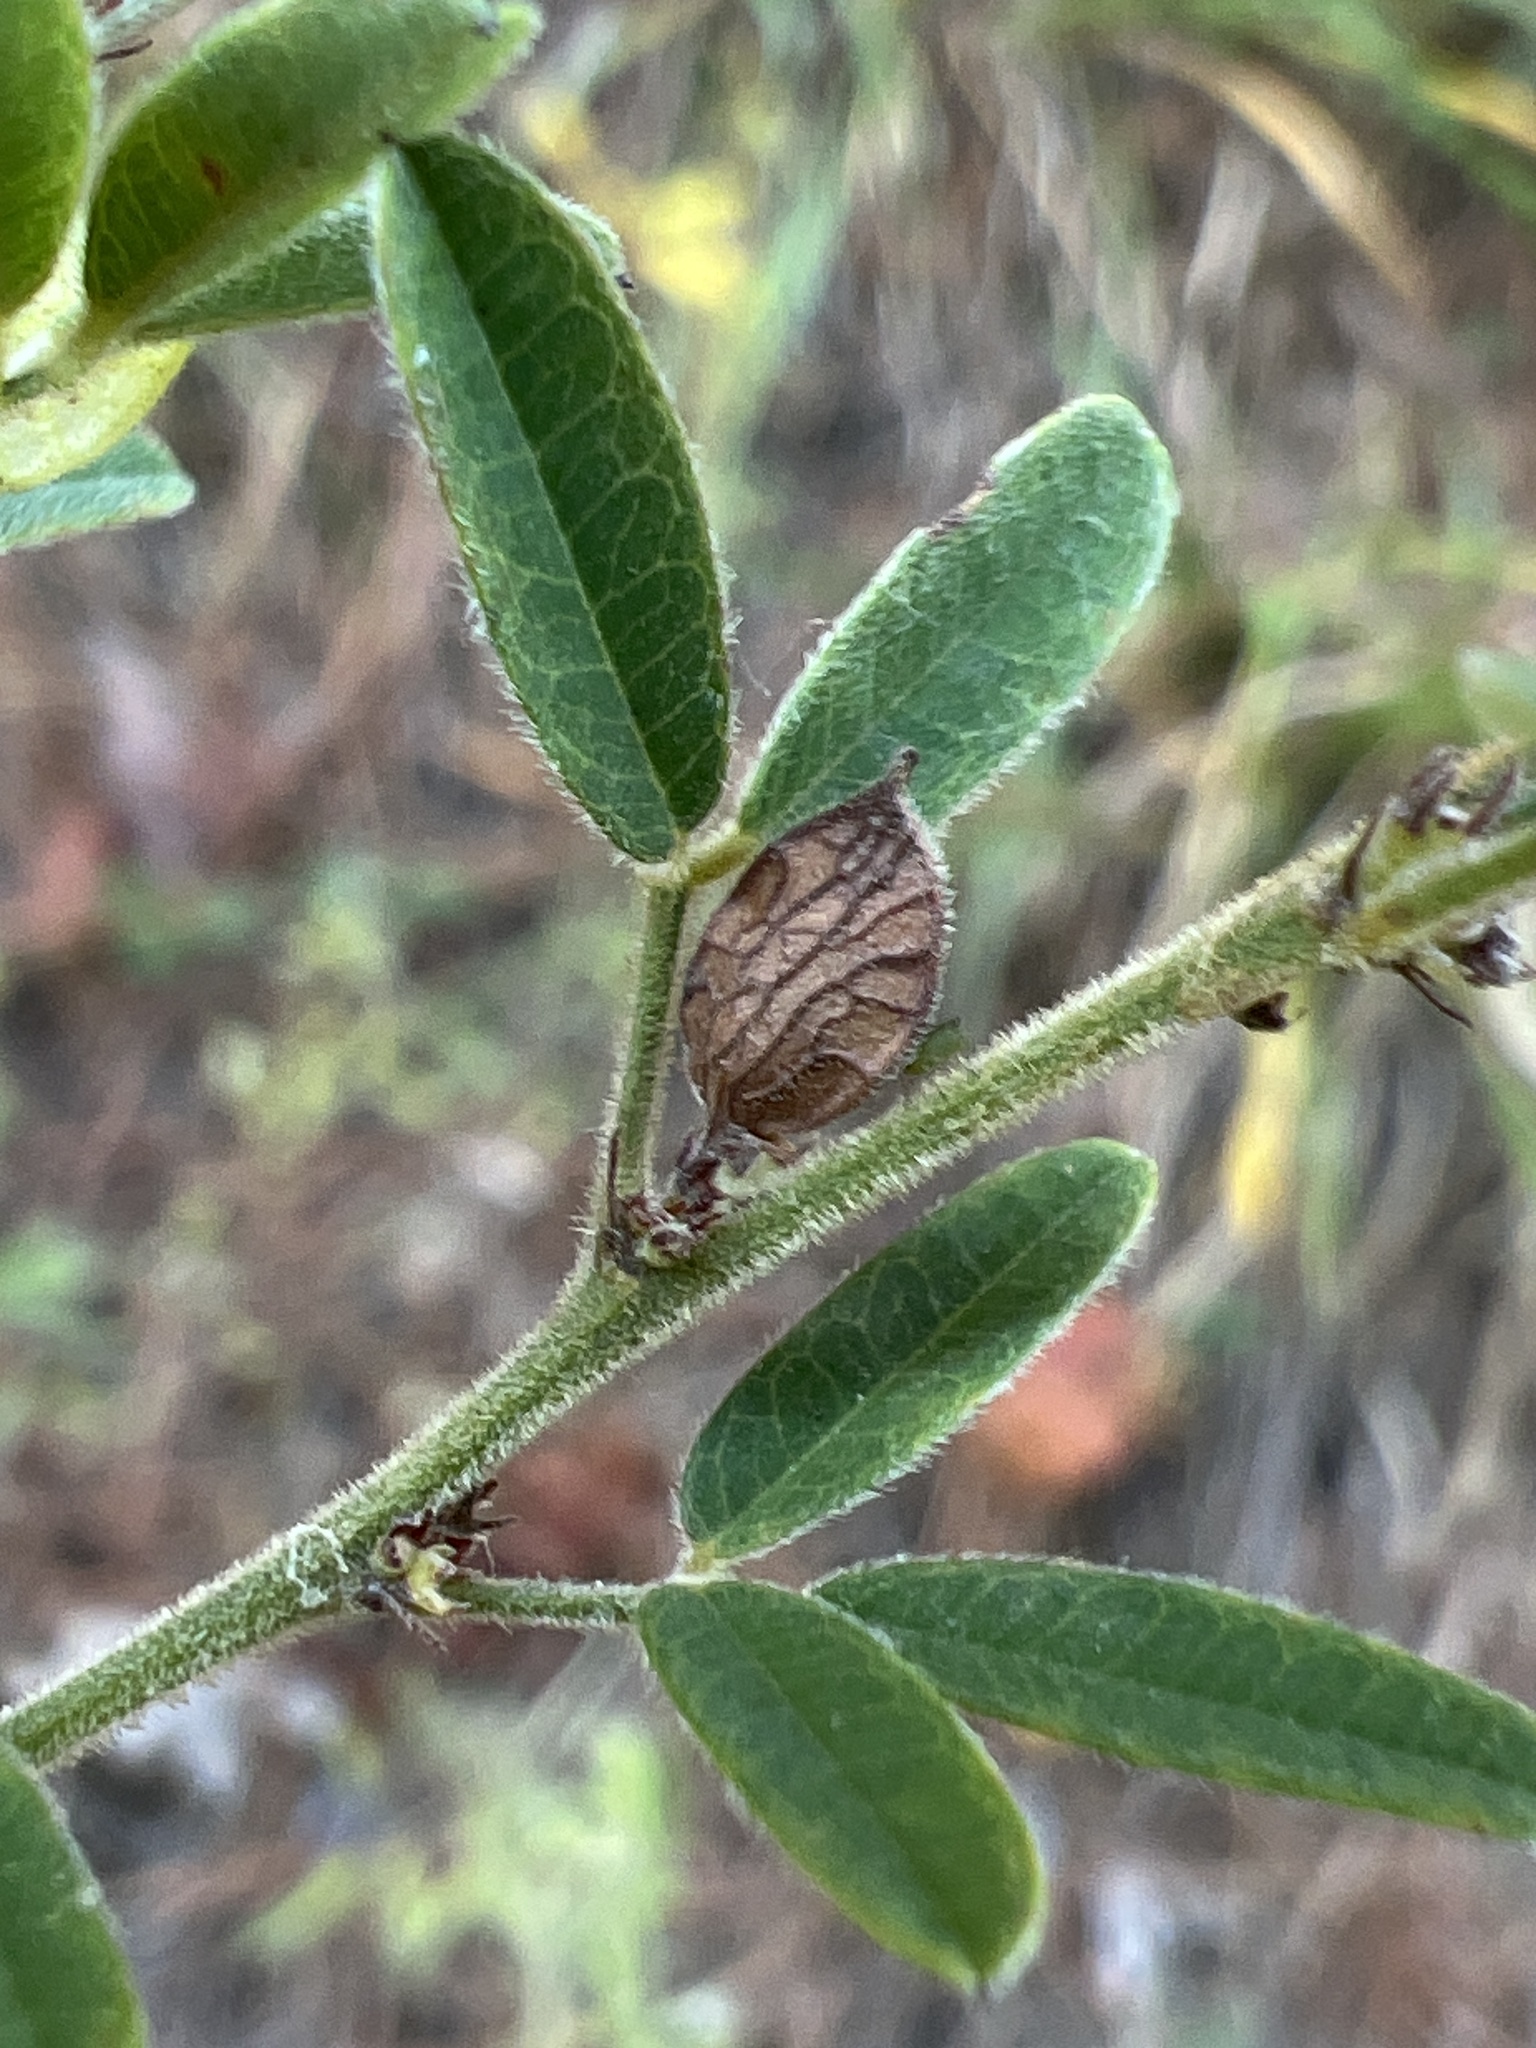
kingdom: Plantae
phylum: Tracheophyta
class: Magnoliopsida
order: Fabales
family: Fabaceae
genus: Lespedeza
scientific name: Lespedeza virginica
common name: Slender bush-clover
